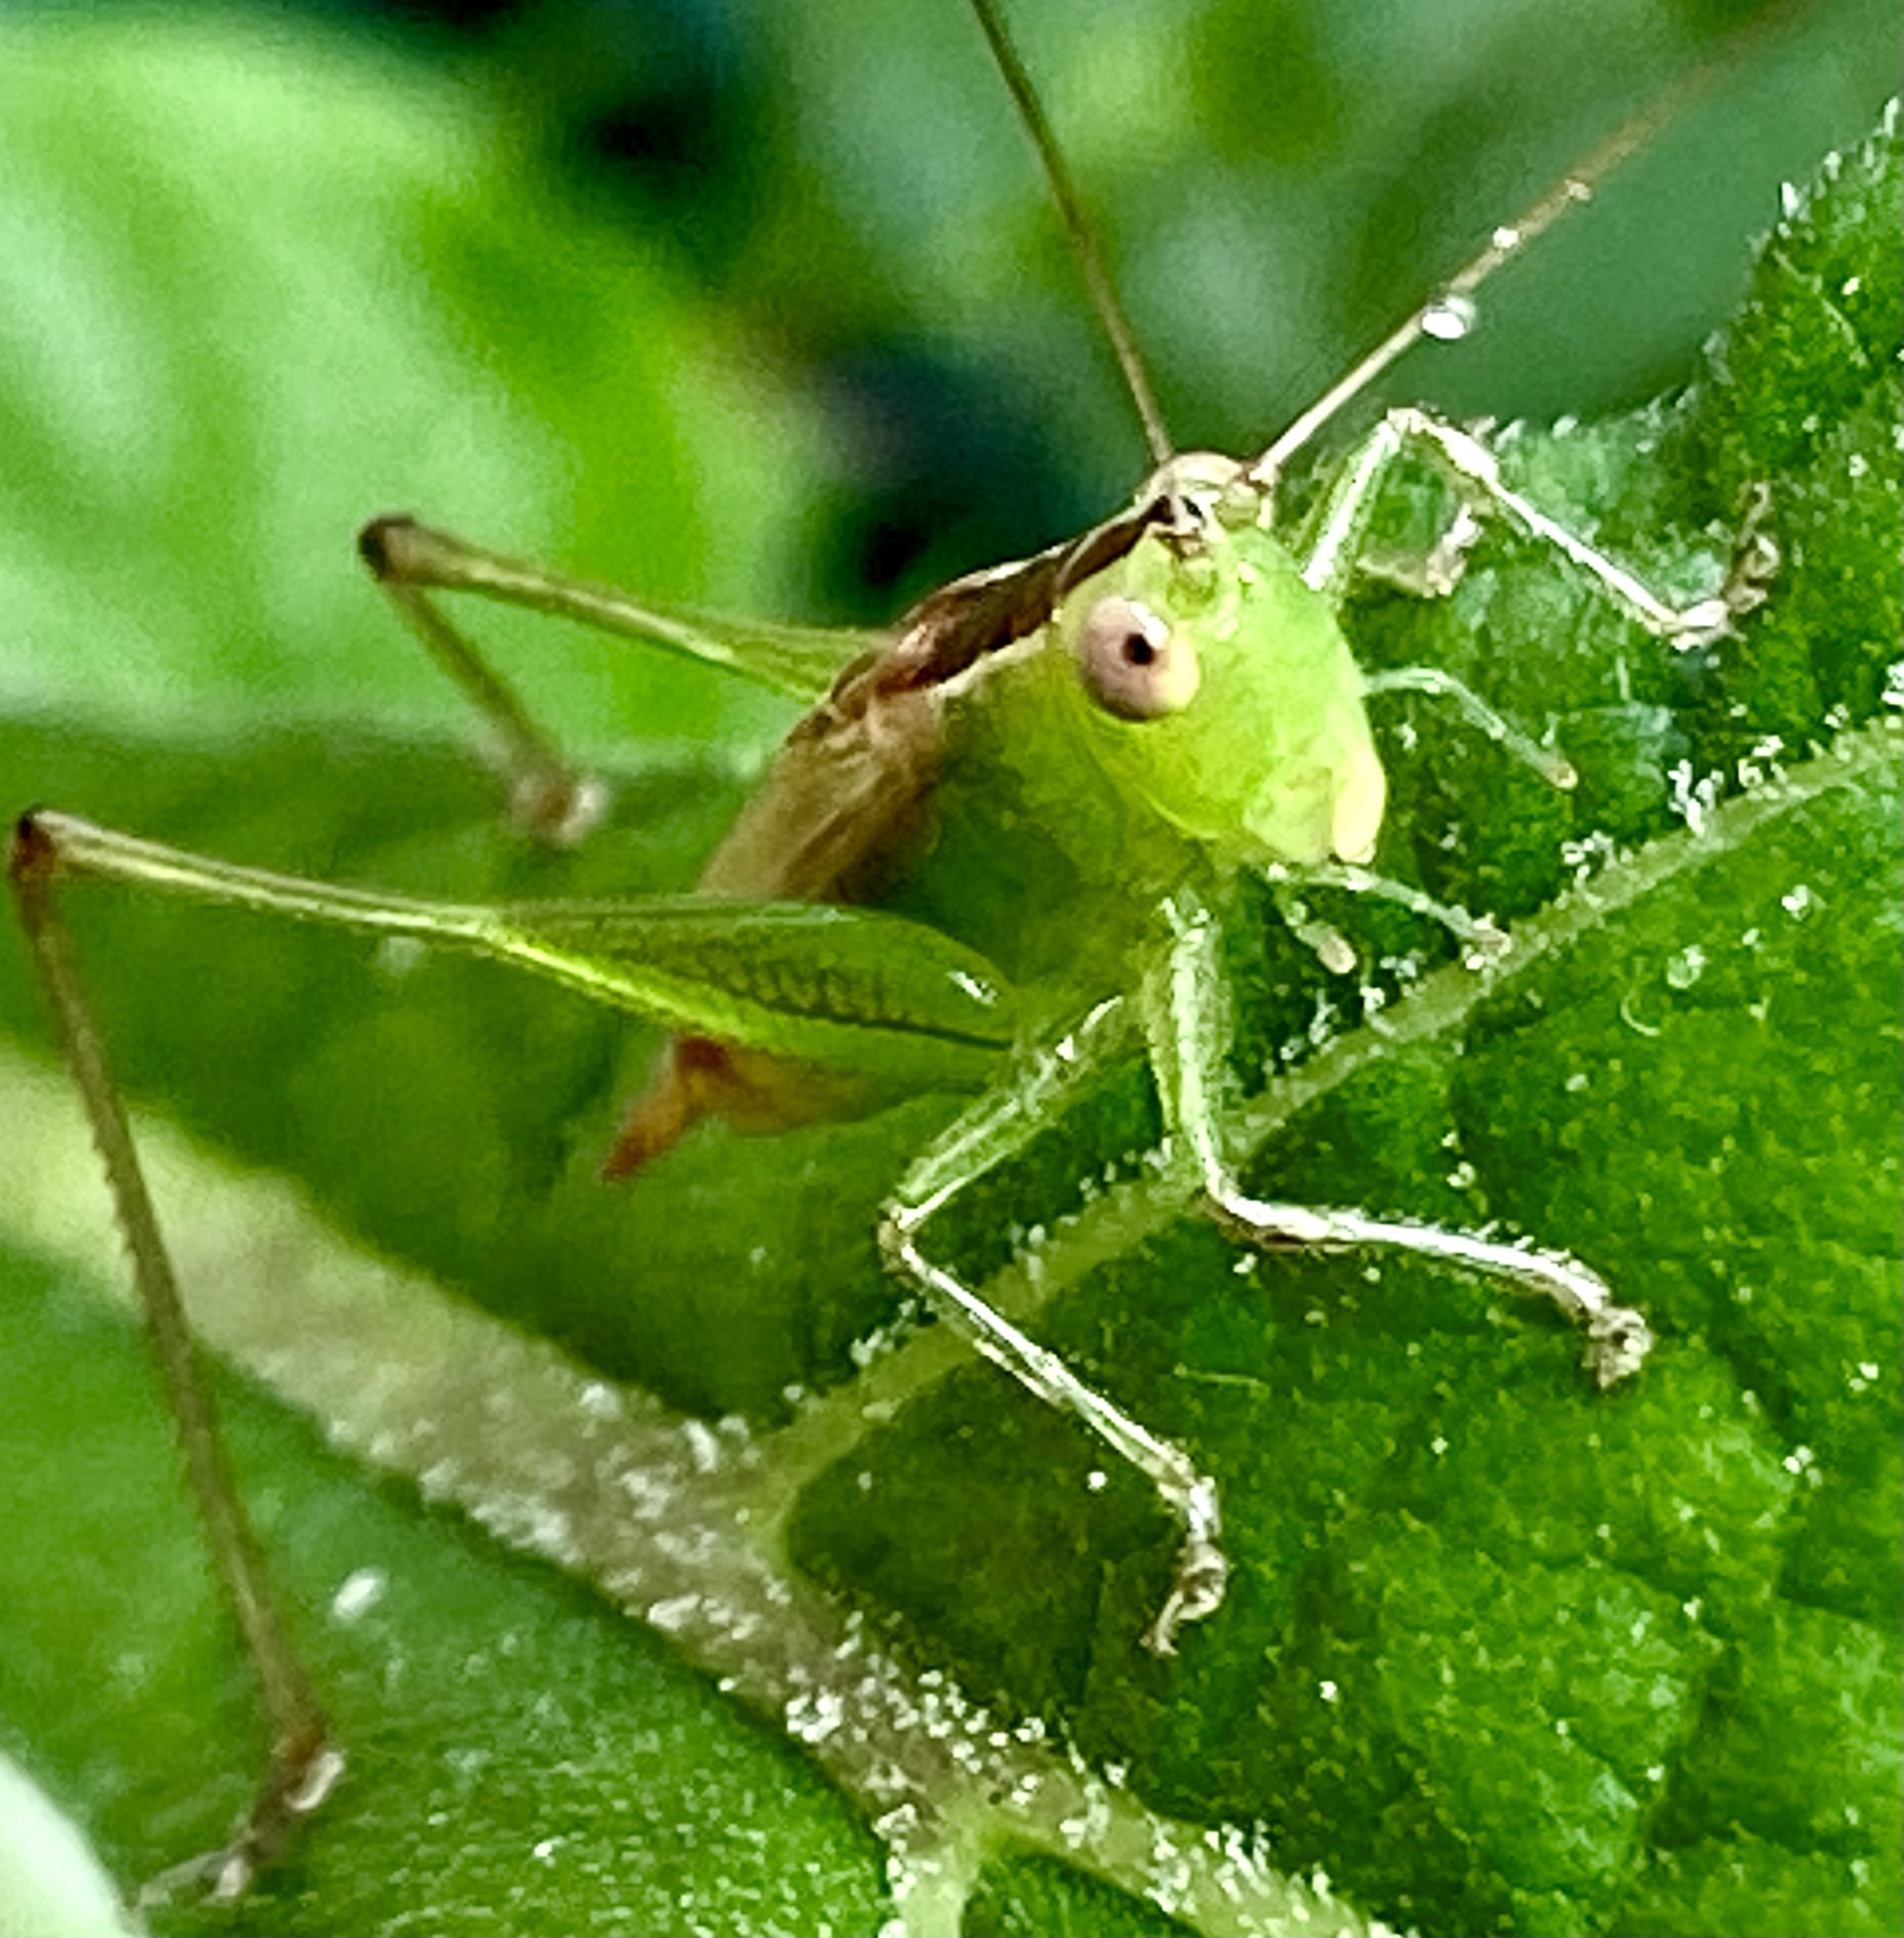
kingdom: Animalia
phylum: Arthropoda
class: Insecta
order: Orthoptera
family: Tettigoniidae
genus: Conocephalus
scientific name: Conocephalus brevipennis
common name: Short-winged meadow katydid
